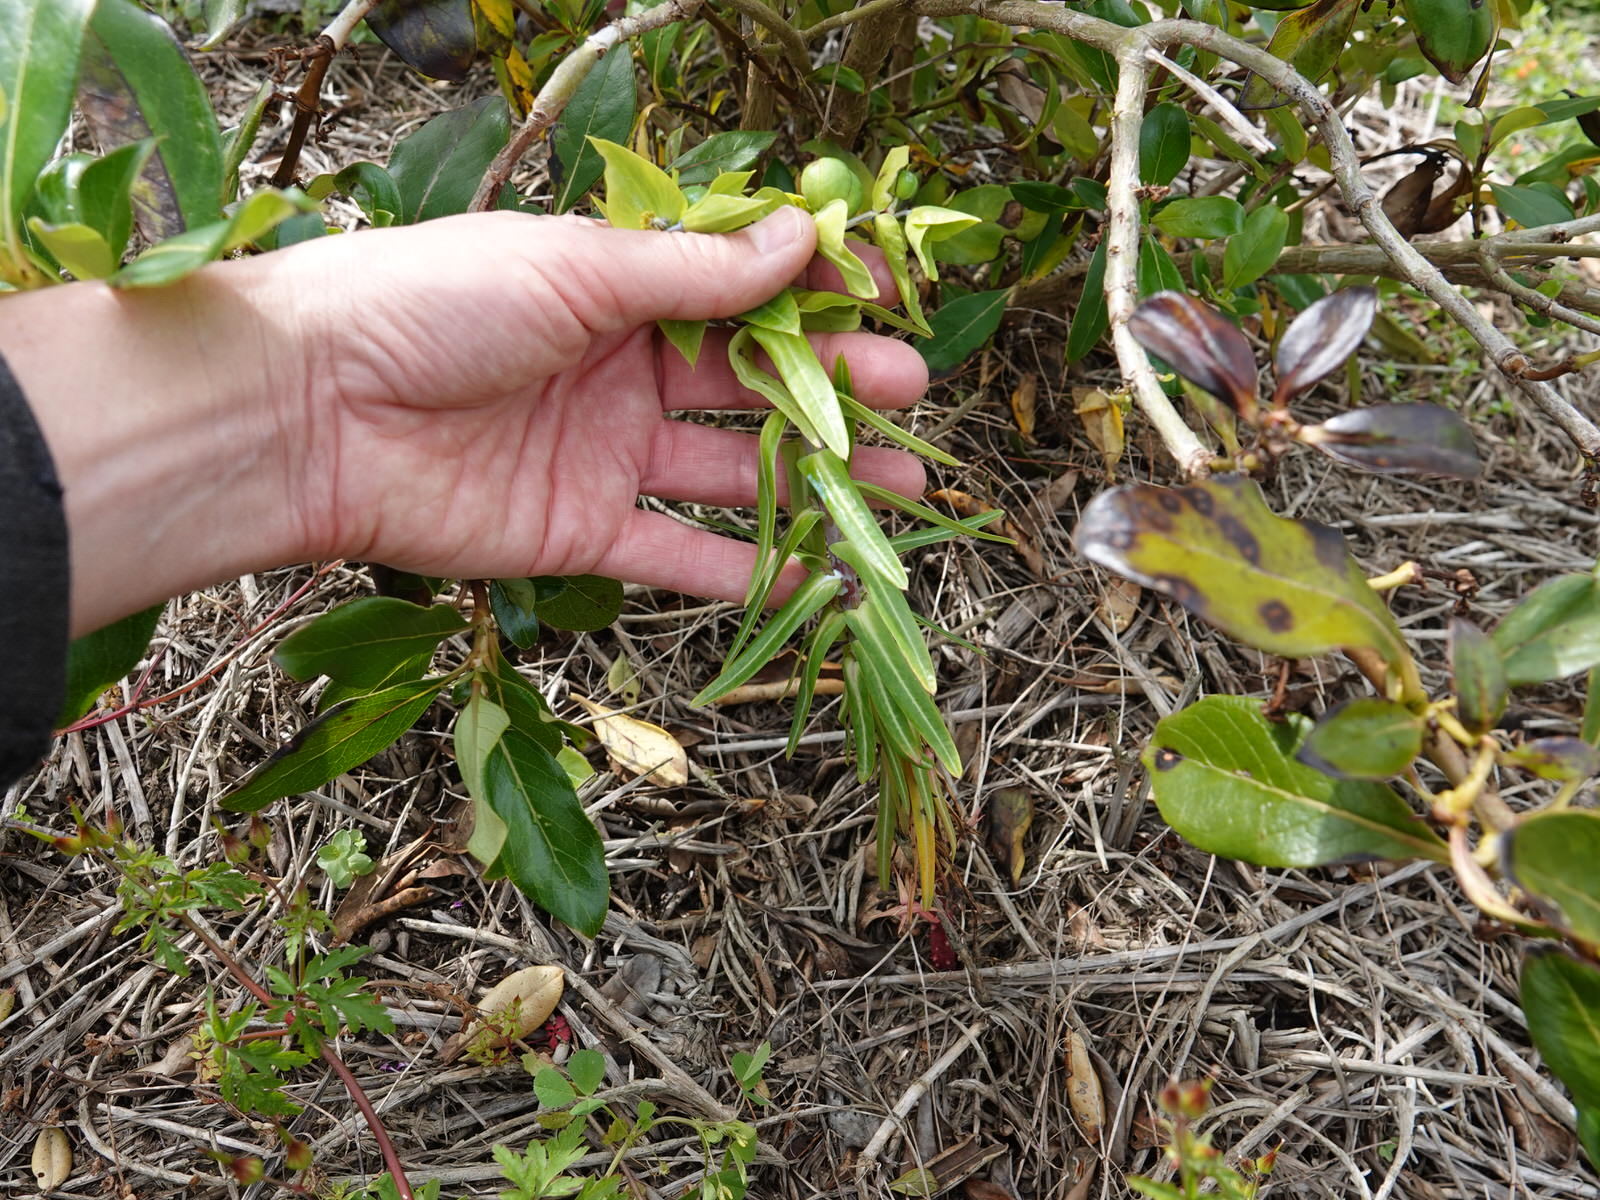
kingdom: Plantae
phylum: Tracheophyta
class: Magnoliopsida
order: Malpighiales
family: Euphorbiaceae
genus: Euphorbia
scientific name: Euphorbia lathyris
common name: Caper spurge
